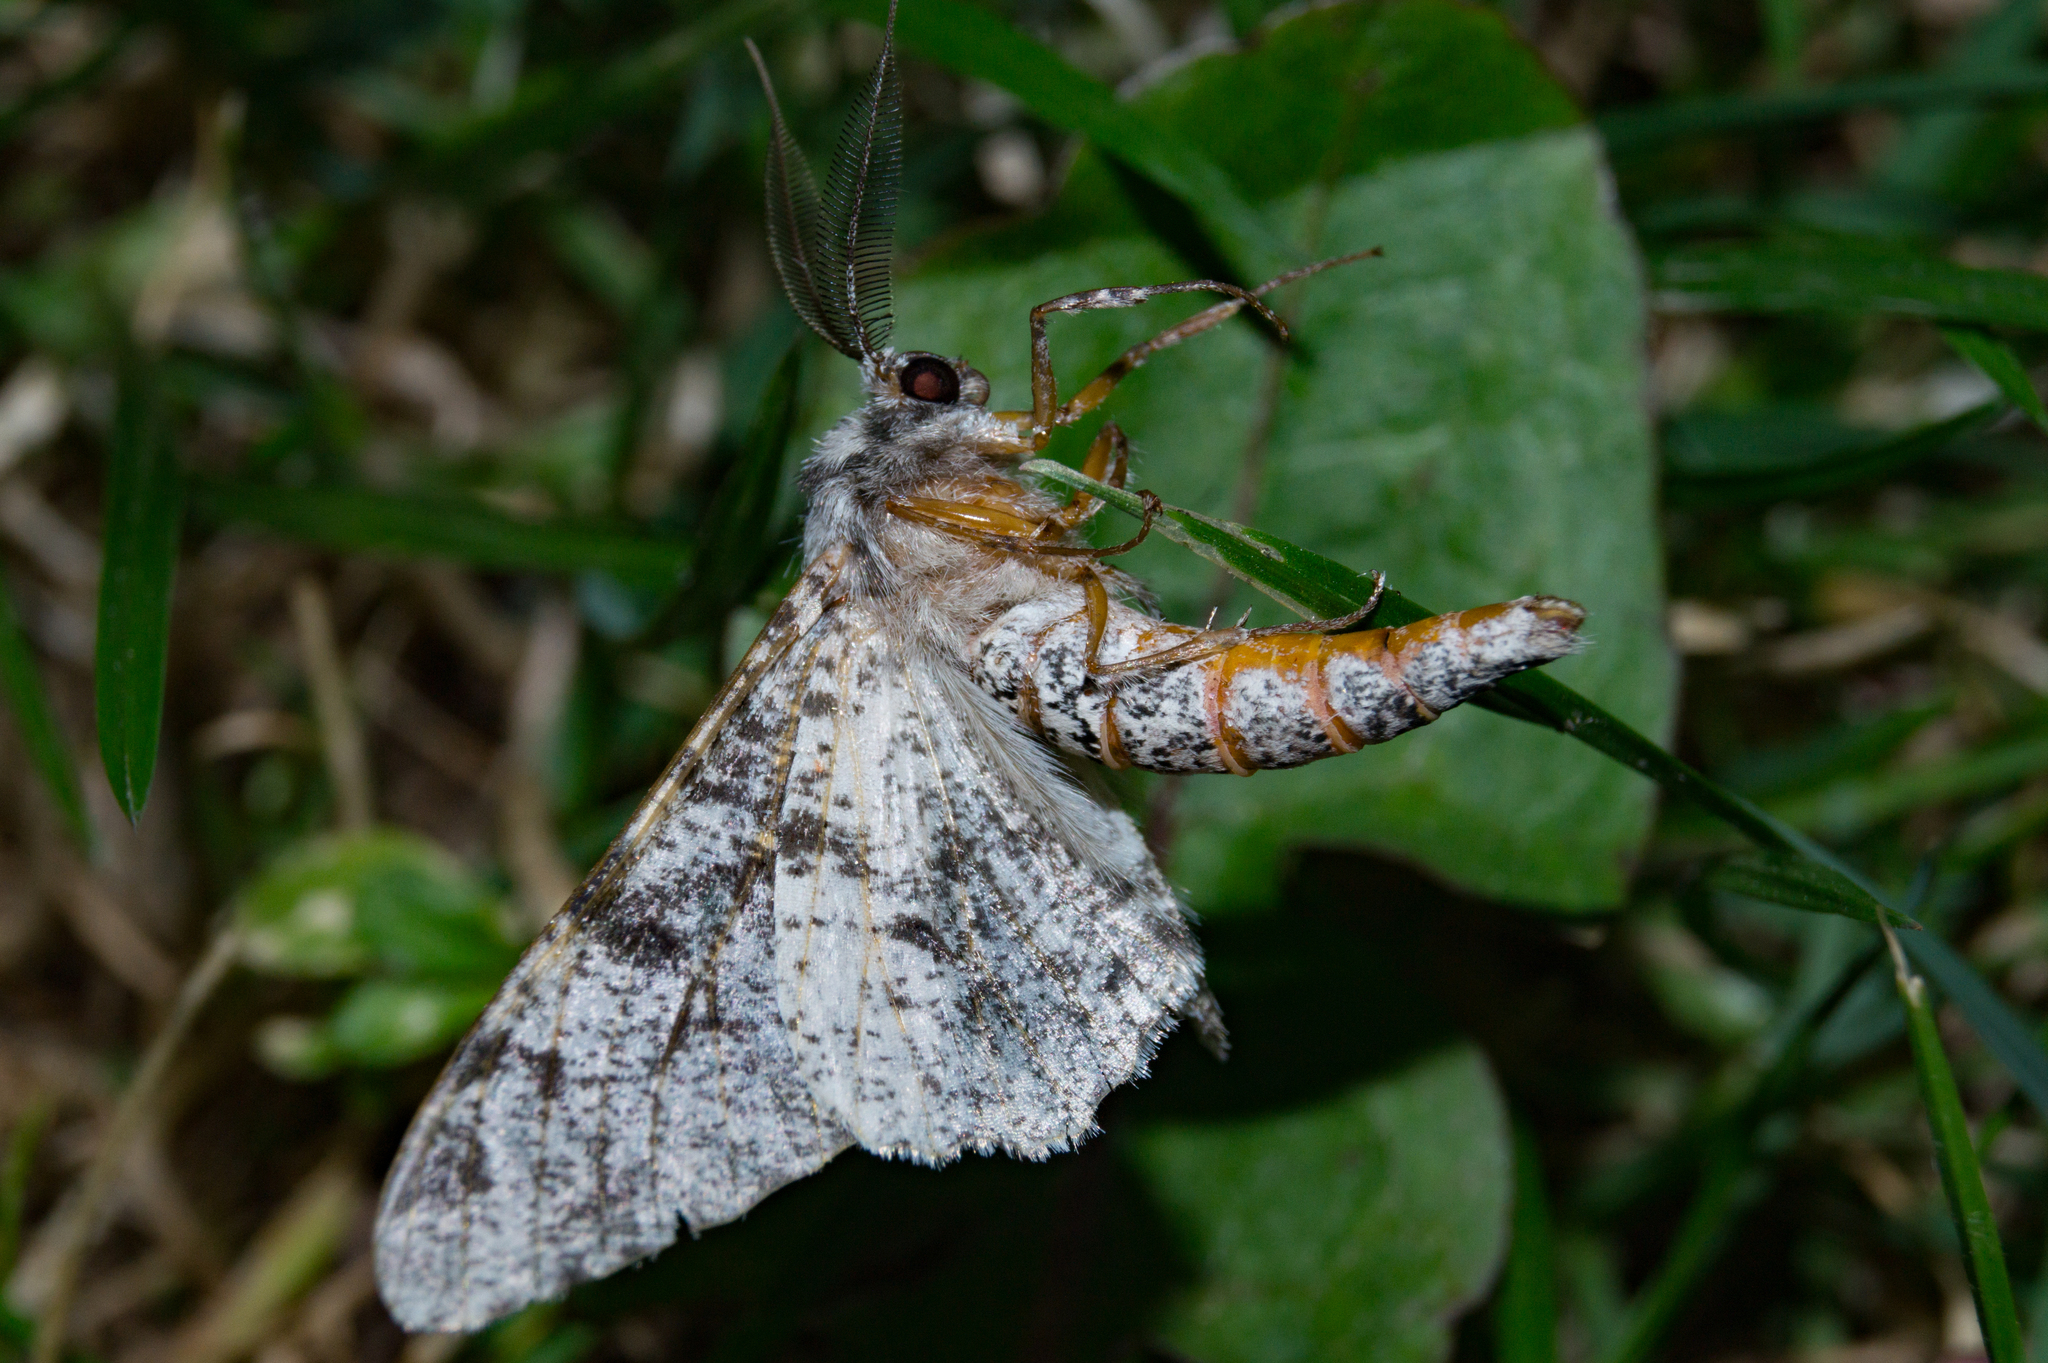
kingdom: Animalia
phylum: Arthropoda
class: Insecta
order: Lepidoptera
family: Geometridae
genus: Biston
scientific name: Biston betularia
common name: Peppered moth
